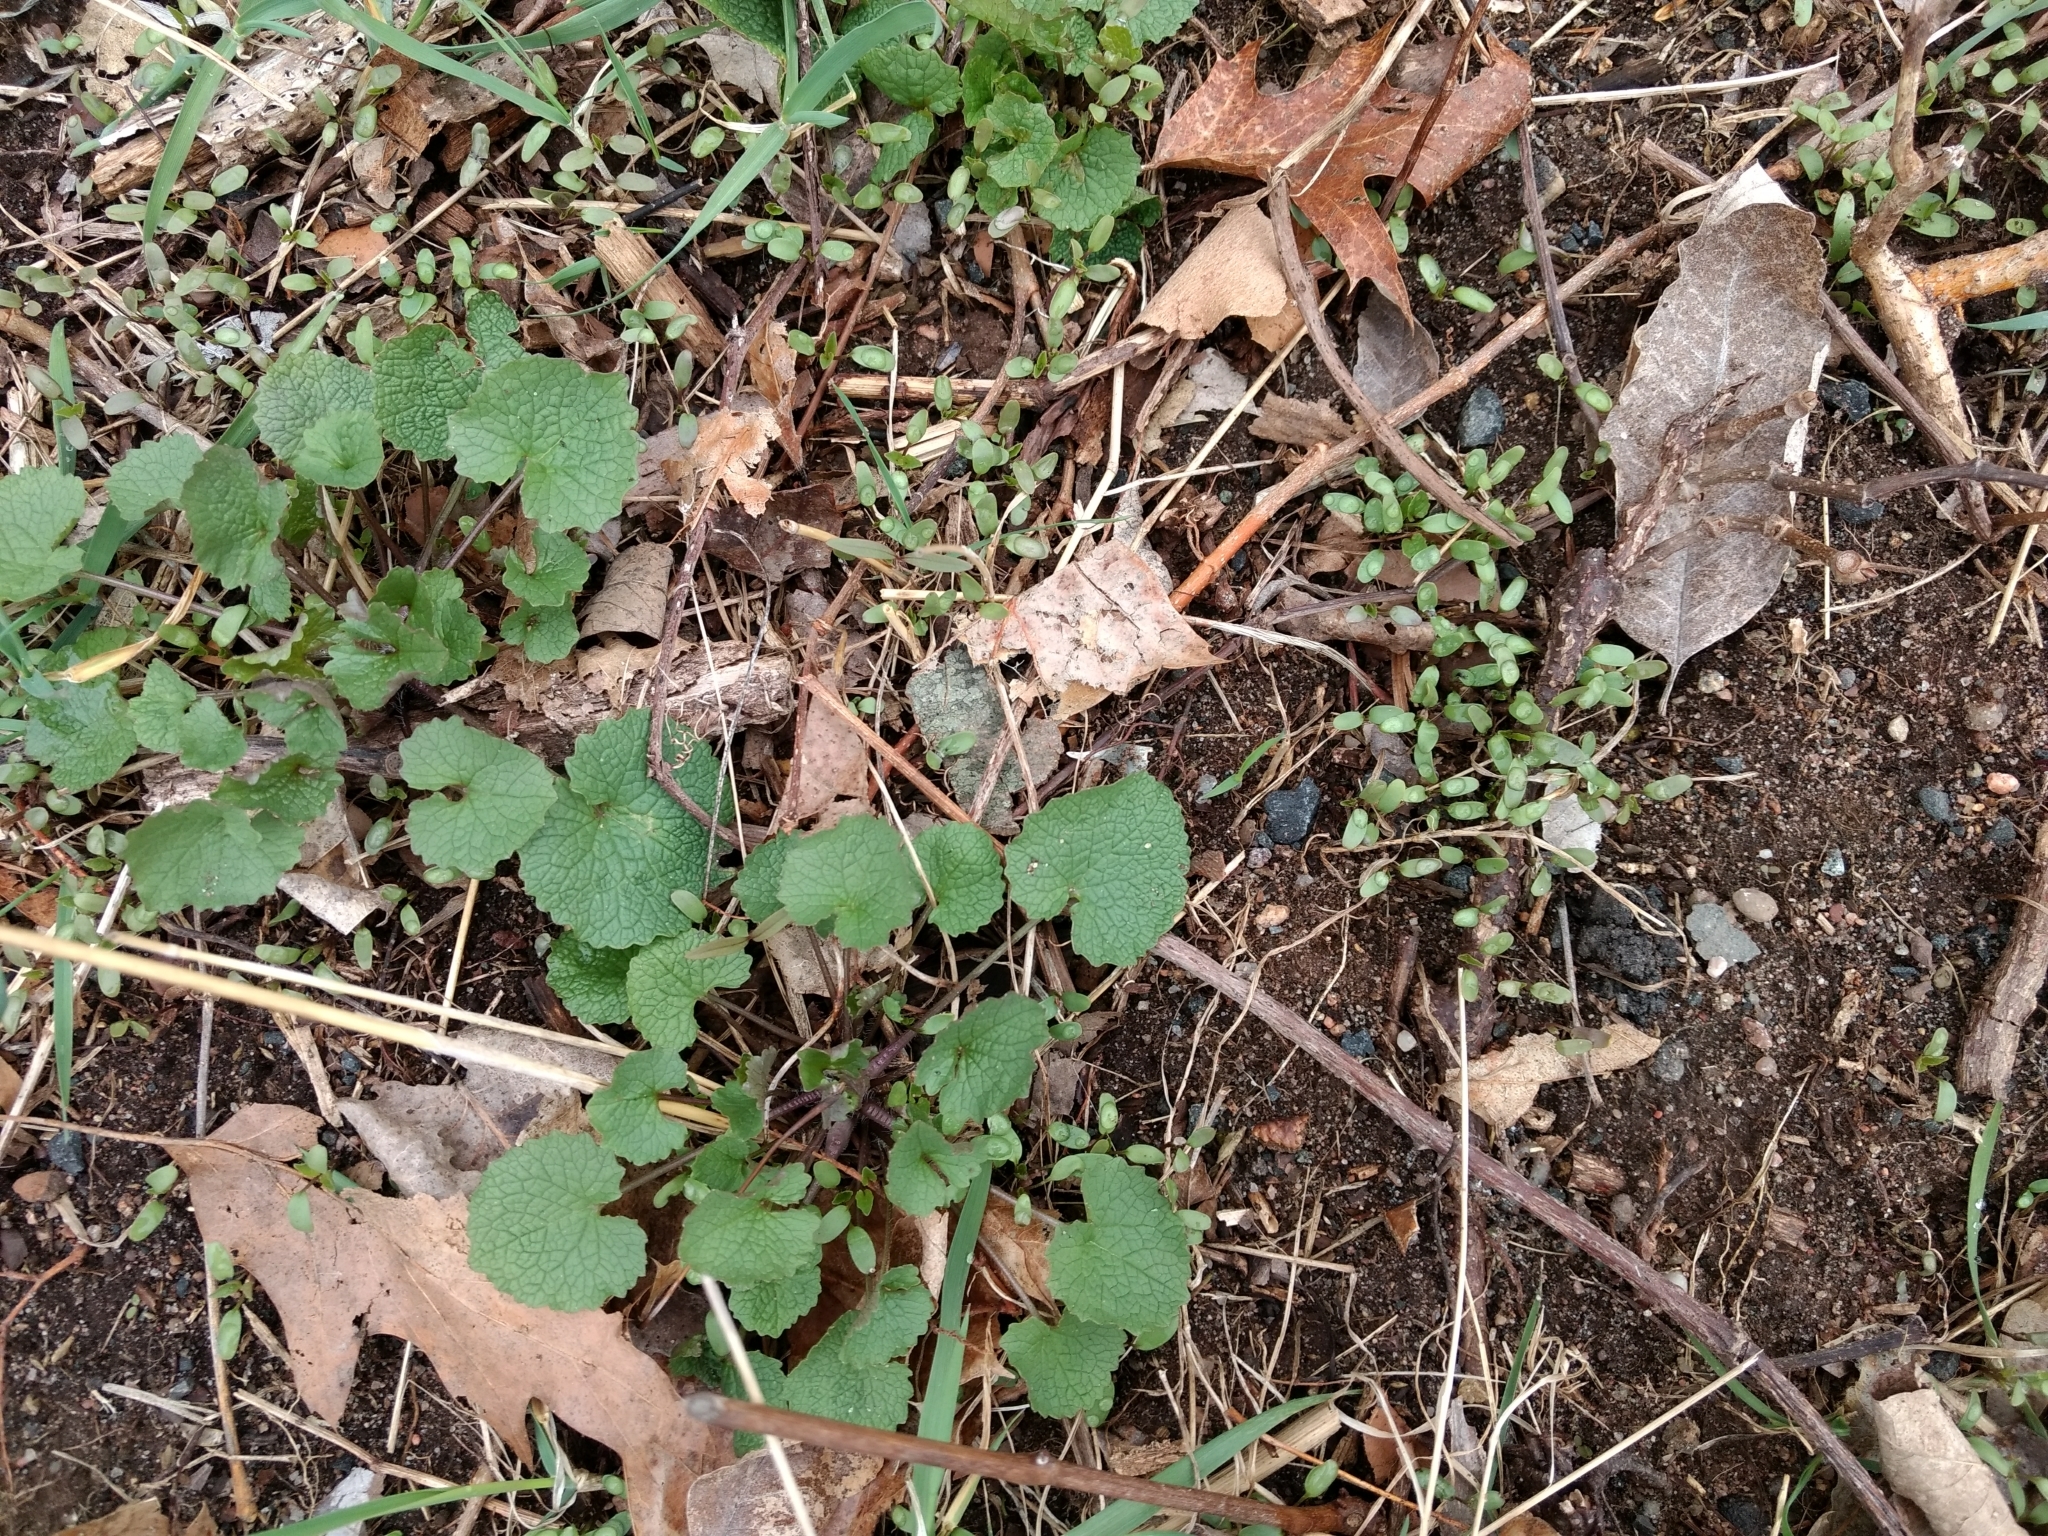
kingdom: Plantae
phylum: Tracheophyta
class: Magnoliopsida
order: Brassicales
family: Brassicaceae
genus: Alliaria
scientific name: Alliaria petiolata
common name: Garlic mustard
